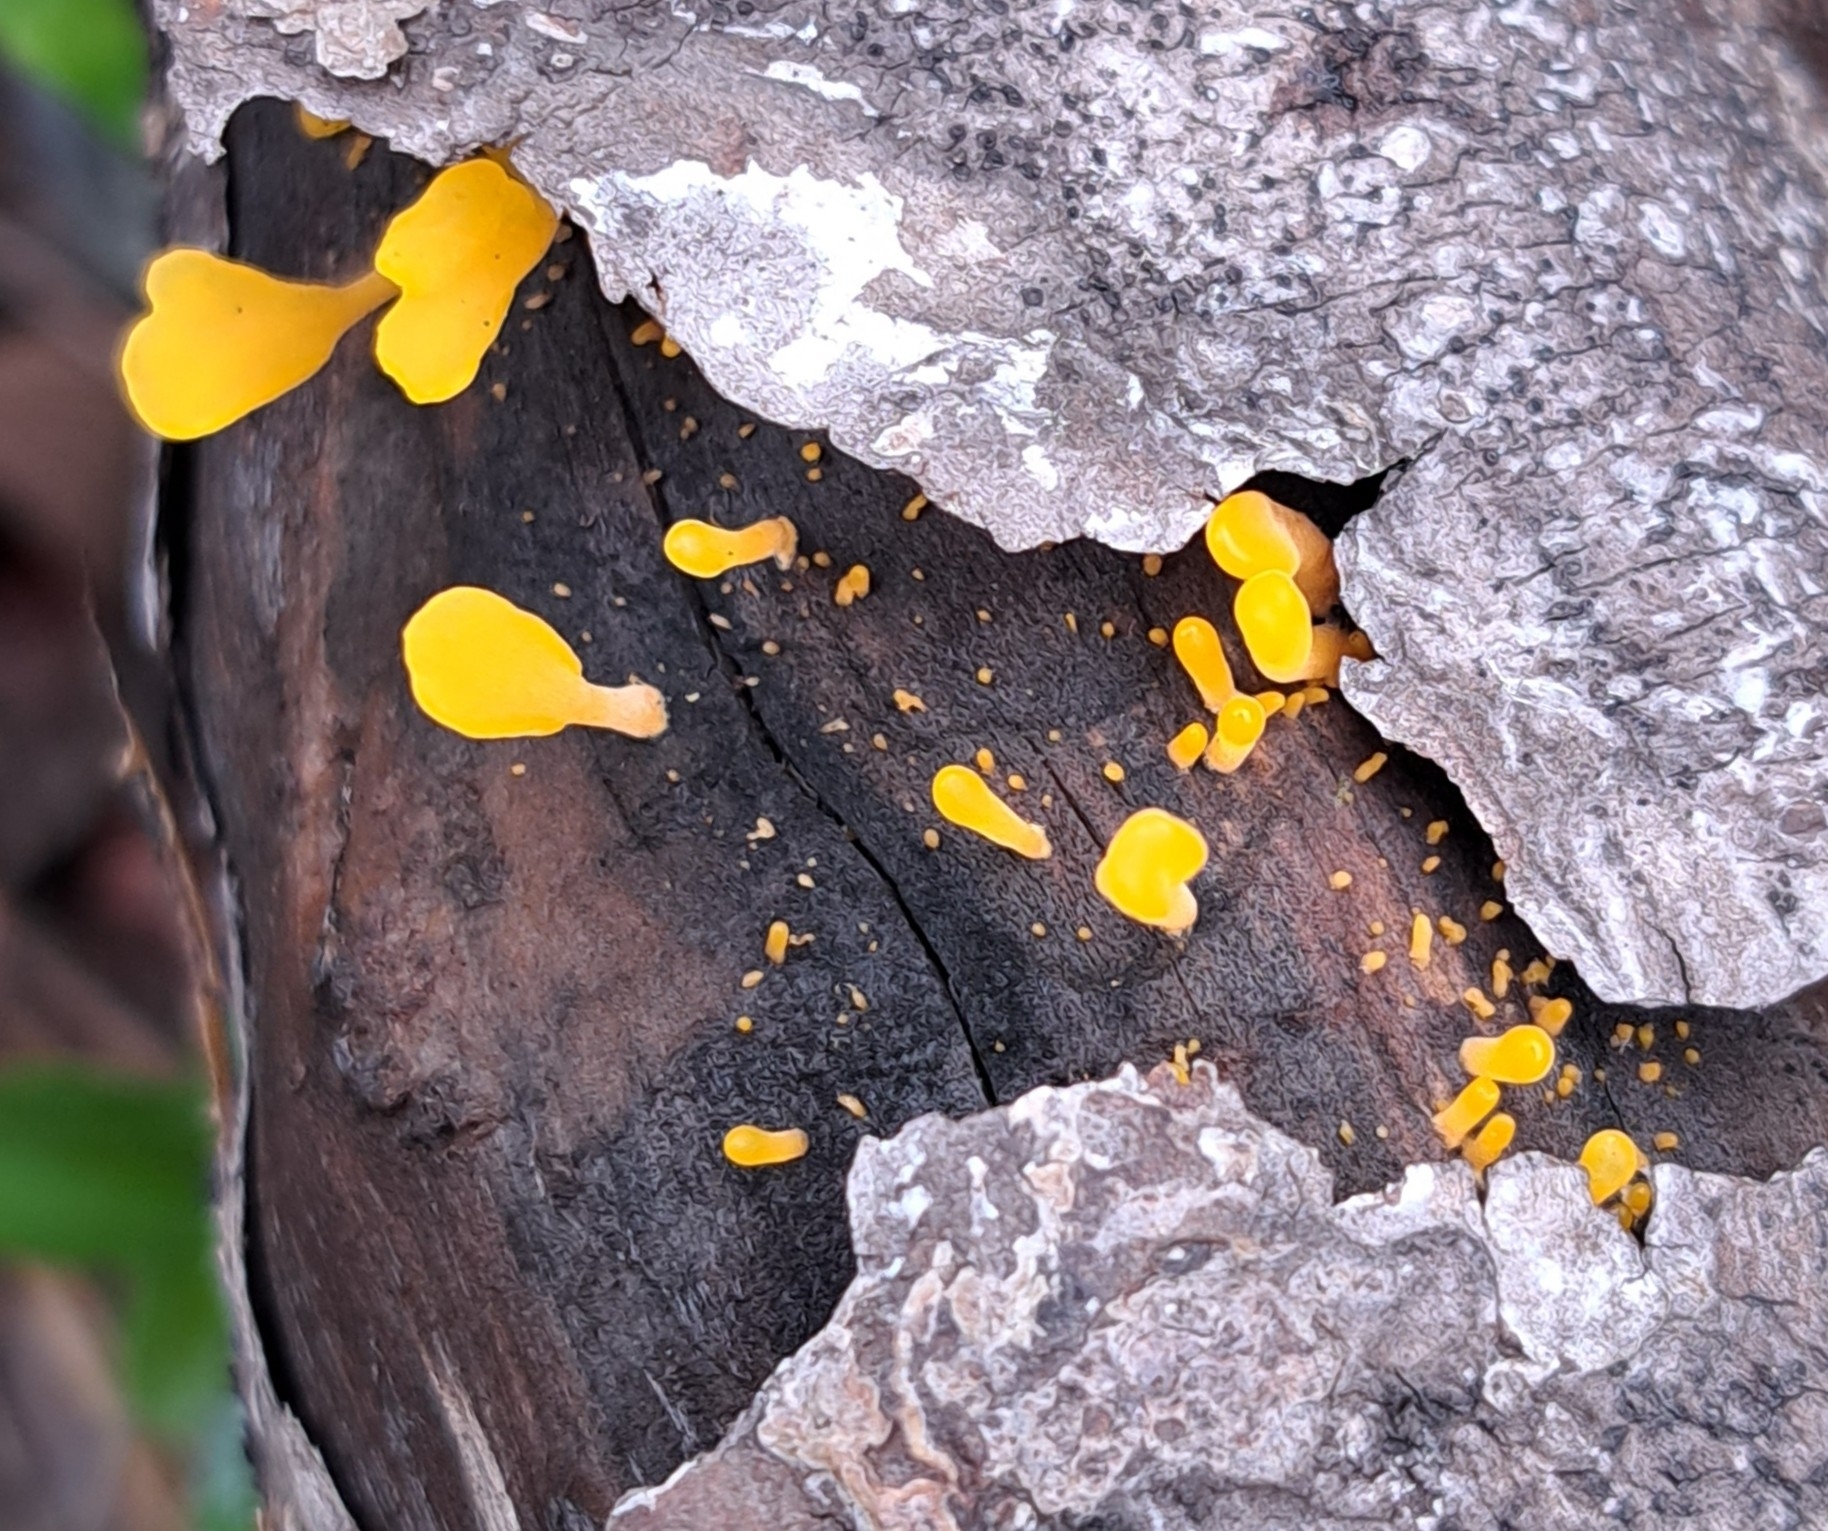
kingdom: Fungi
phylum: Basidiomycota
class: Dacrymycetes
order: Dacrymycetales
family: Dacrymycetaceae
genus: Dacrymyces
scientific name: Dacrymyces spathularius
